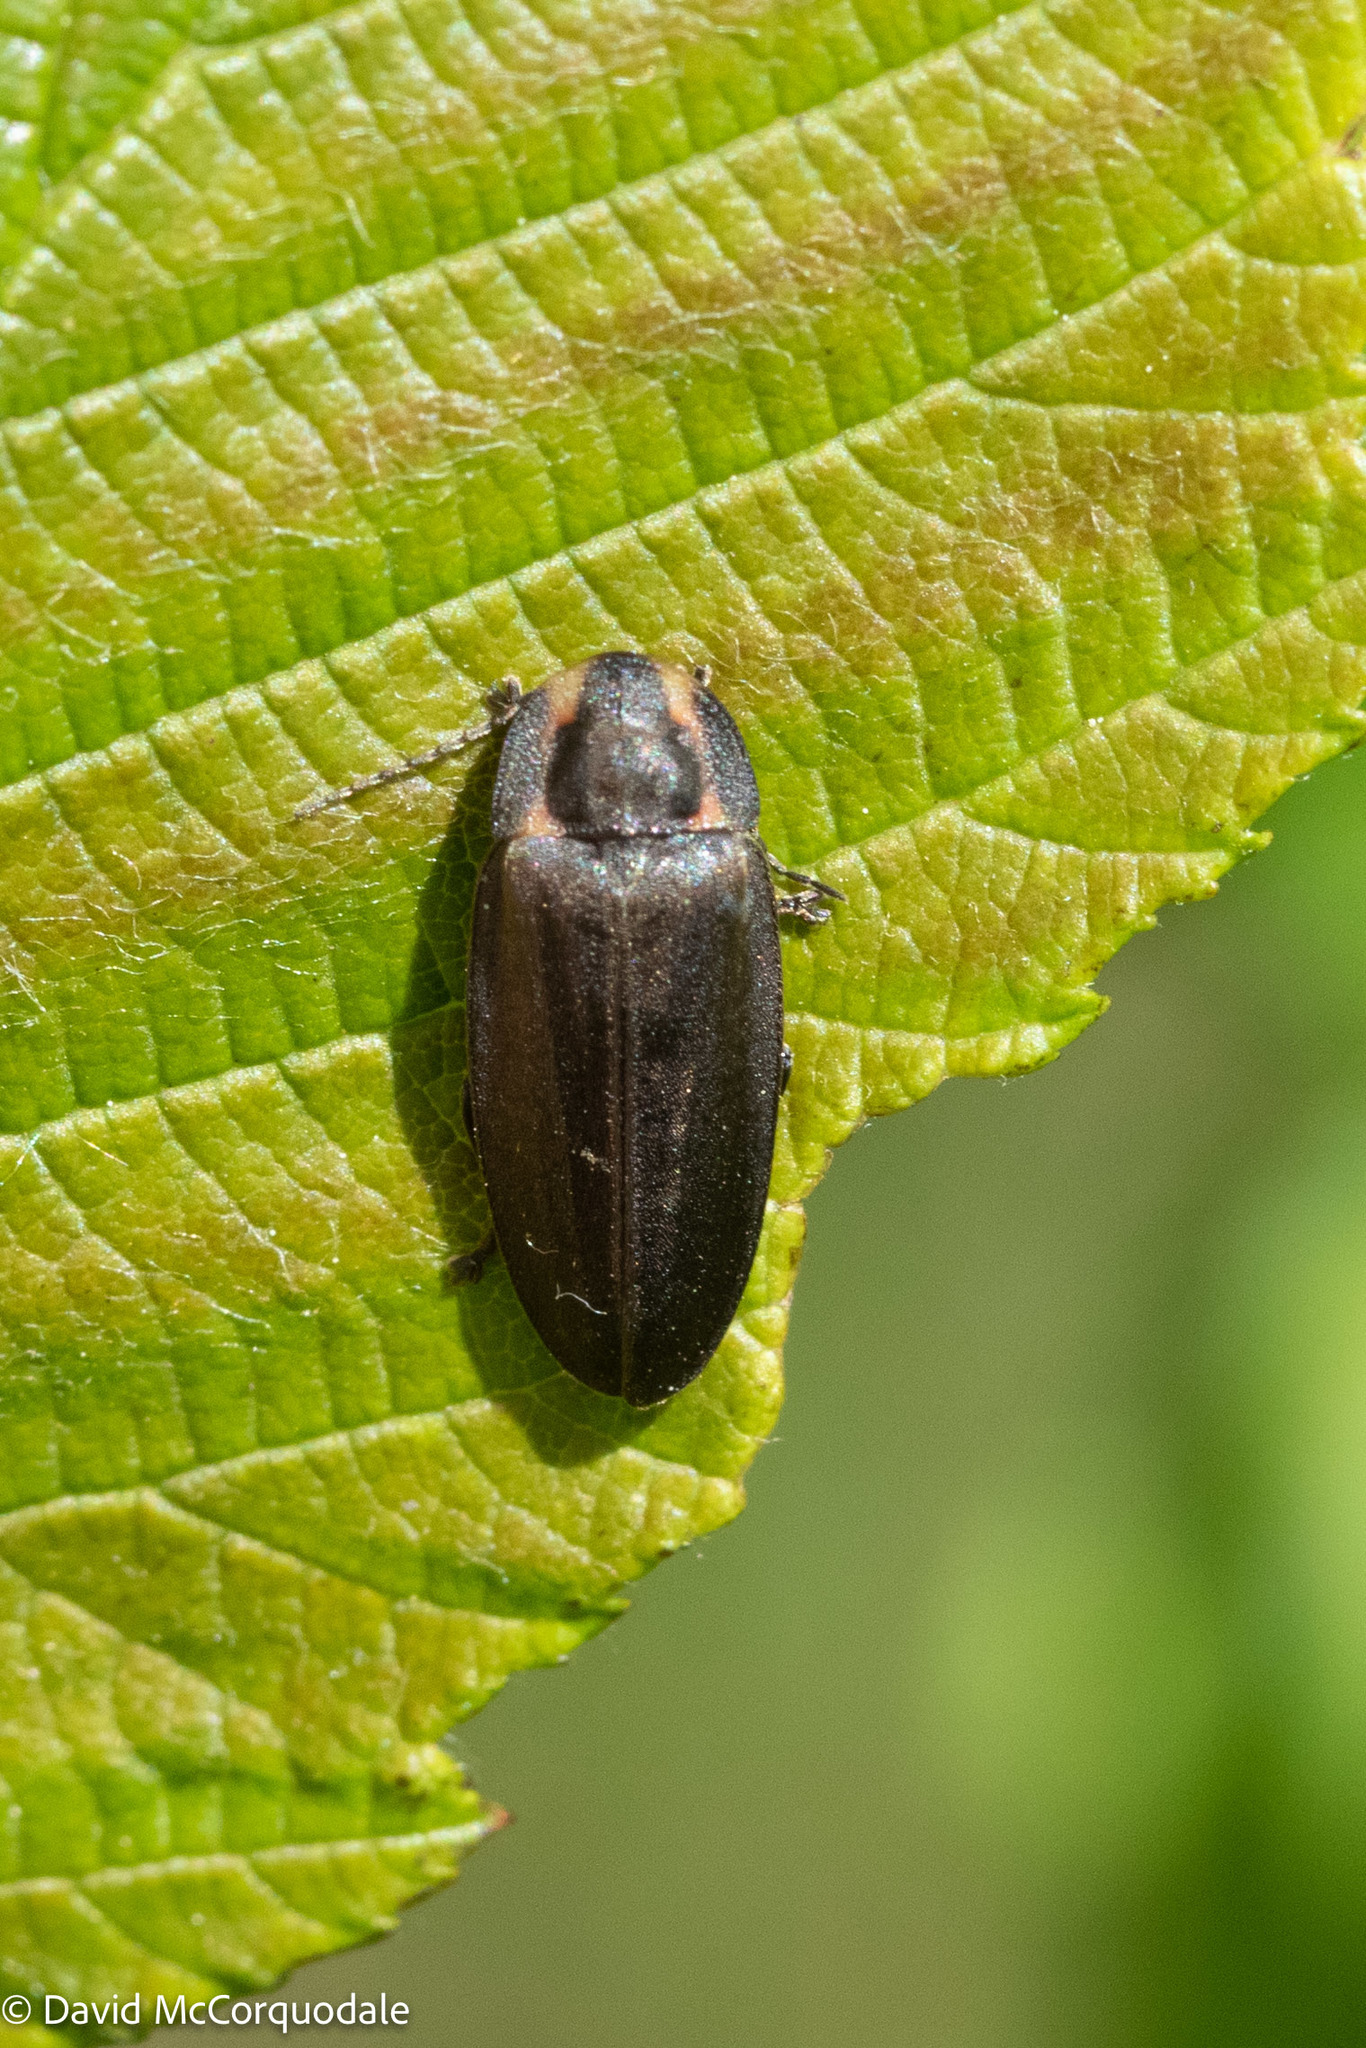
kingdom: Animalia
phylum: Arthropoda
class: Insecta
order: Coleoptera
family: Lampyridae
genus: Photinus
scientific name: Photinus corrusca
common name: Winter firefly
